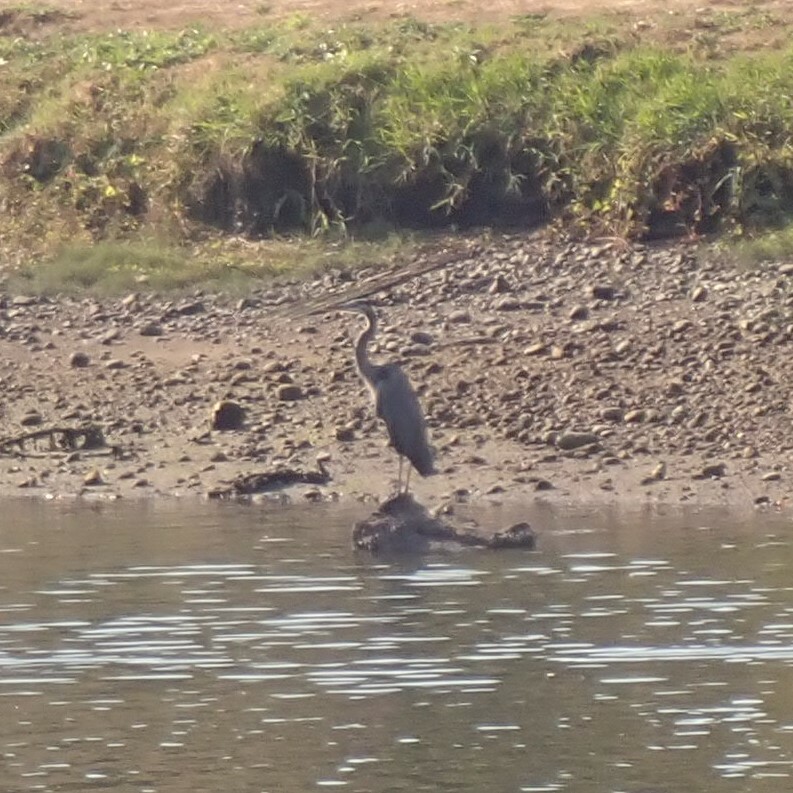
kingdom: Animalia
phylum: Chordata
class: Aves
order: Pelecaniformes
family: Ardeidae
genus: Ardea
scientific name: Ardea herodias
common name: Great blue heron
